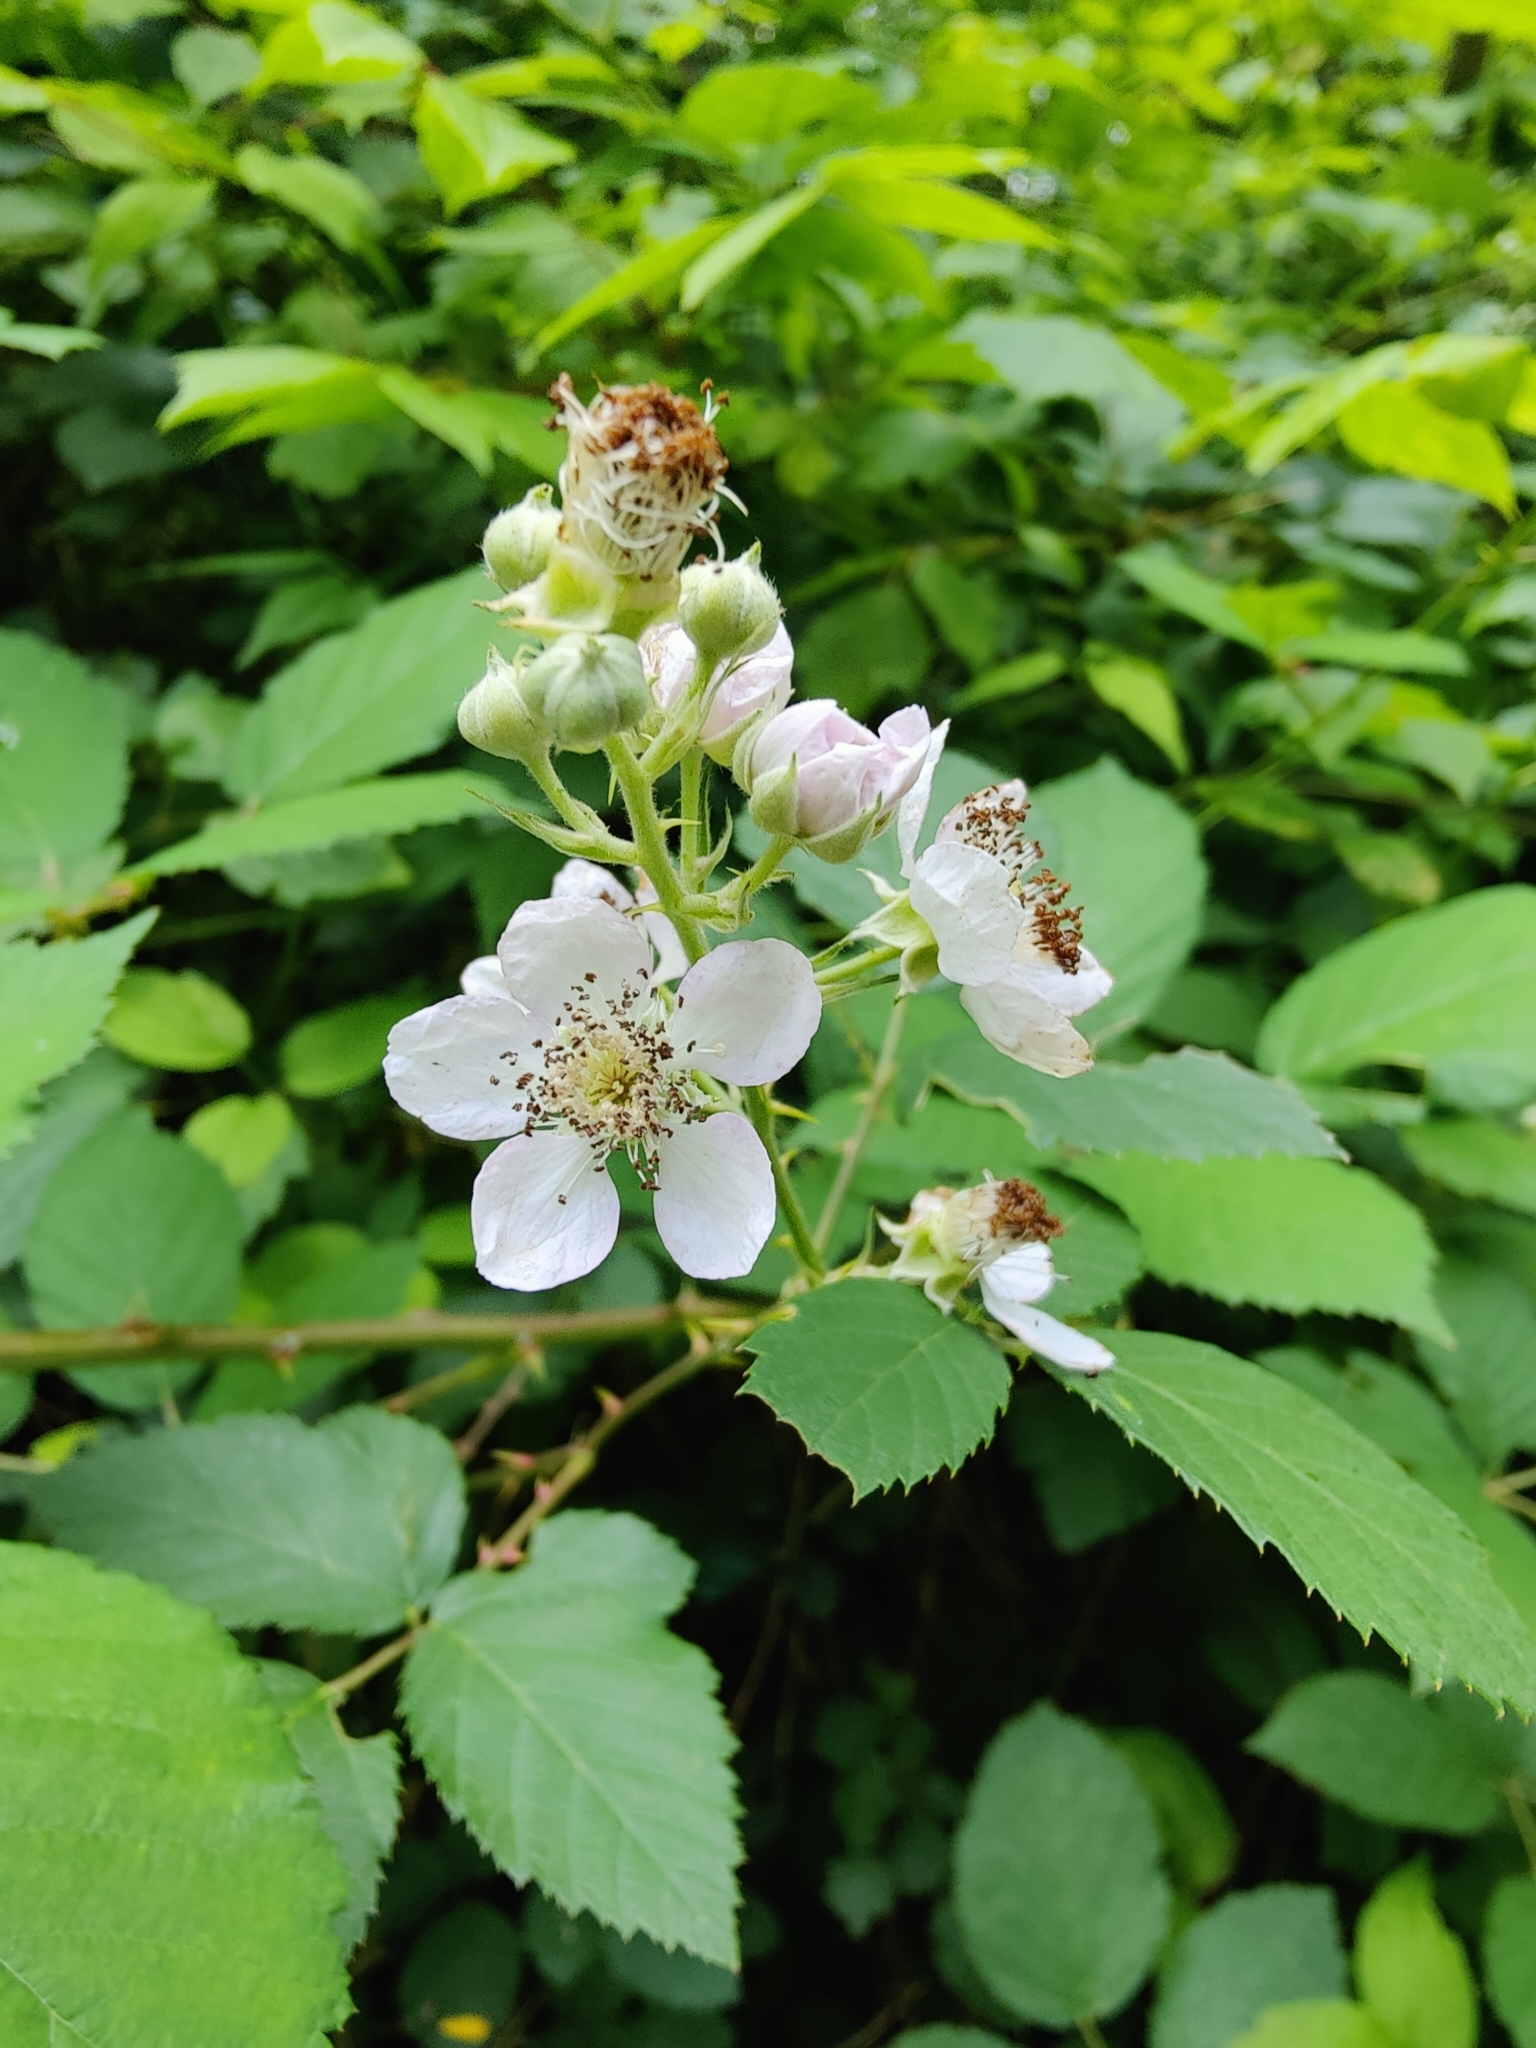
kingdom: Plantae
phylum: Tracheophyta
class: Magnoliopsida
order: Rosales
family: Rosaceae
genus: Rubus
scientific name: Rubus bifrons
